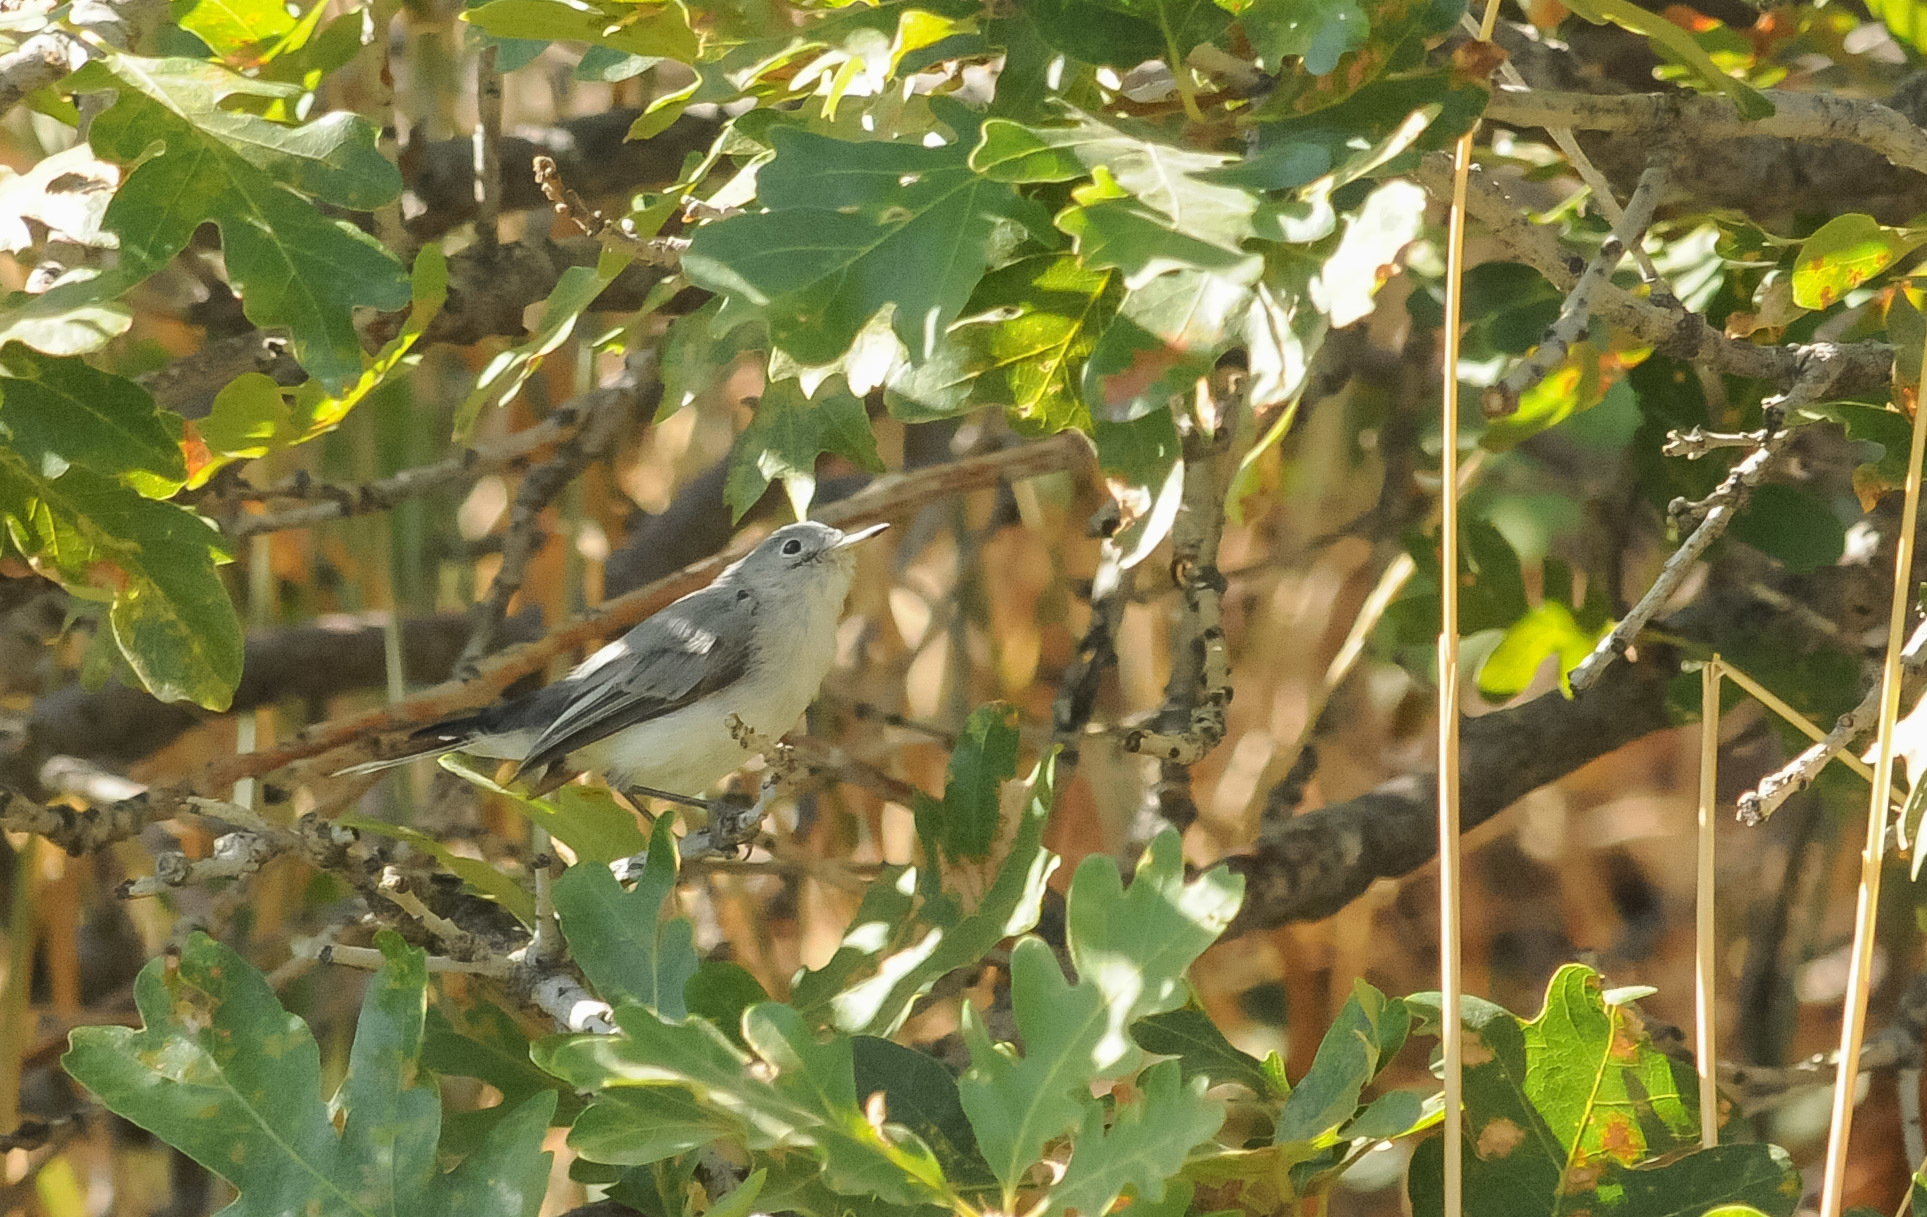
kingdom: Animalia
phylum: Chordata
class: Aves
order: Passeriformes
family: Polioptilidae
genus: Polioptila
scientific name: Polioptila caerulea
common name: Blue-gray gnatcatcher
